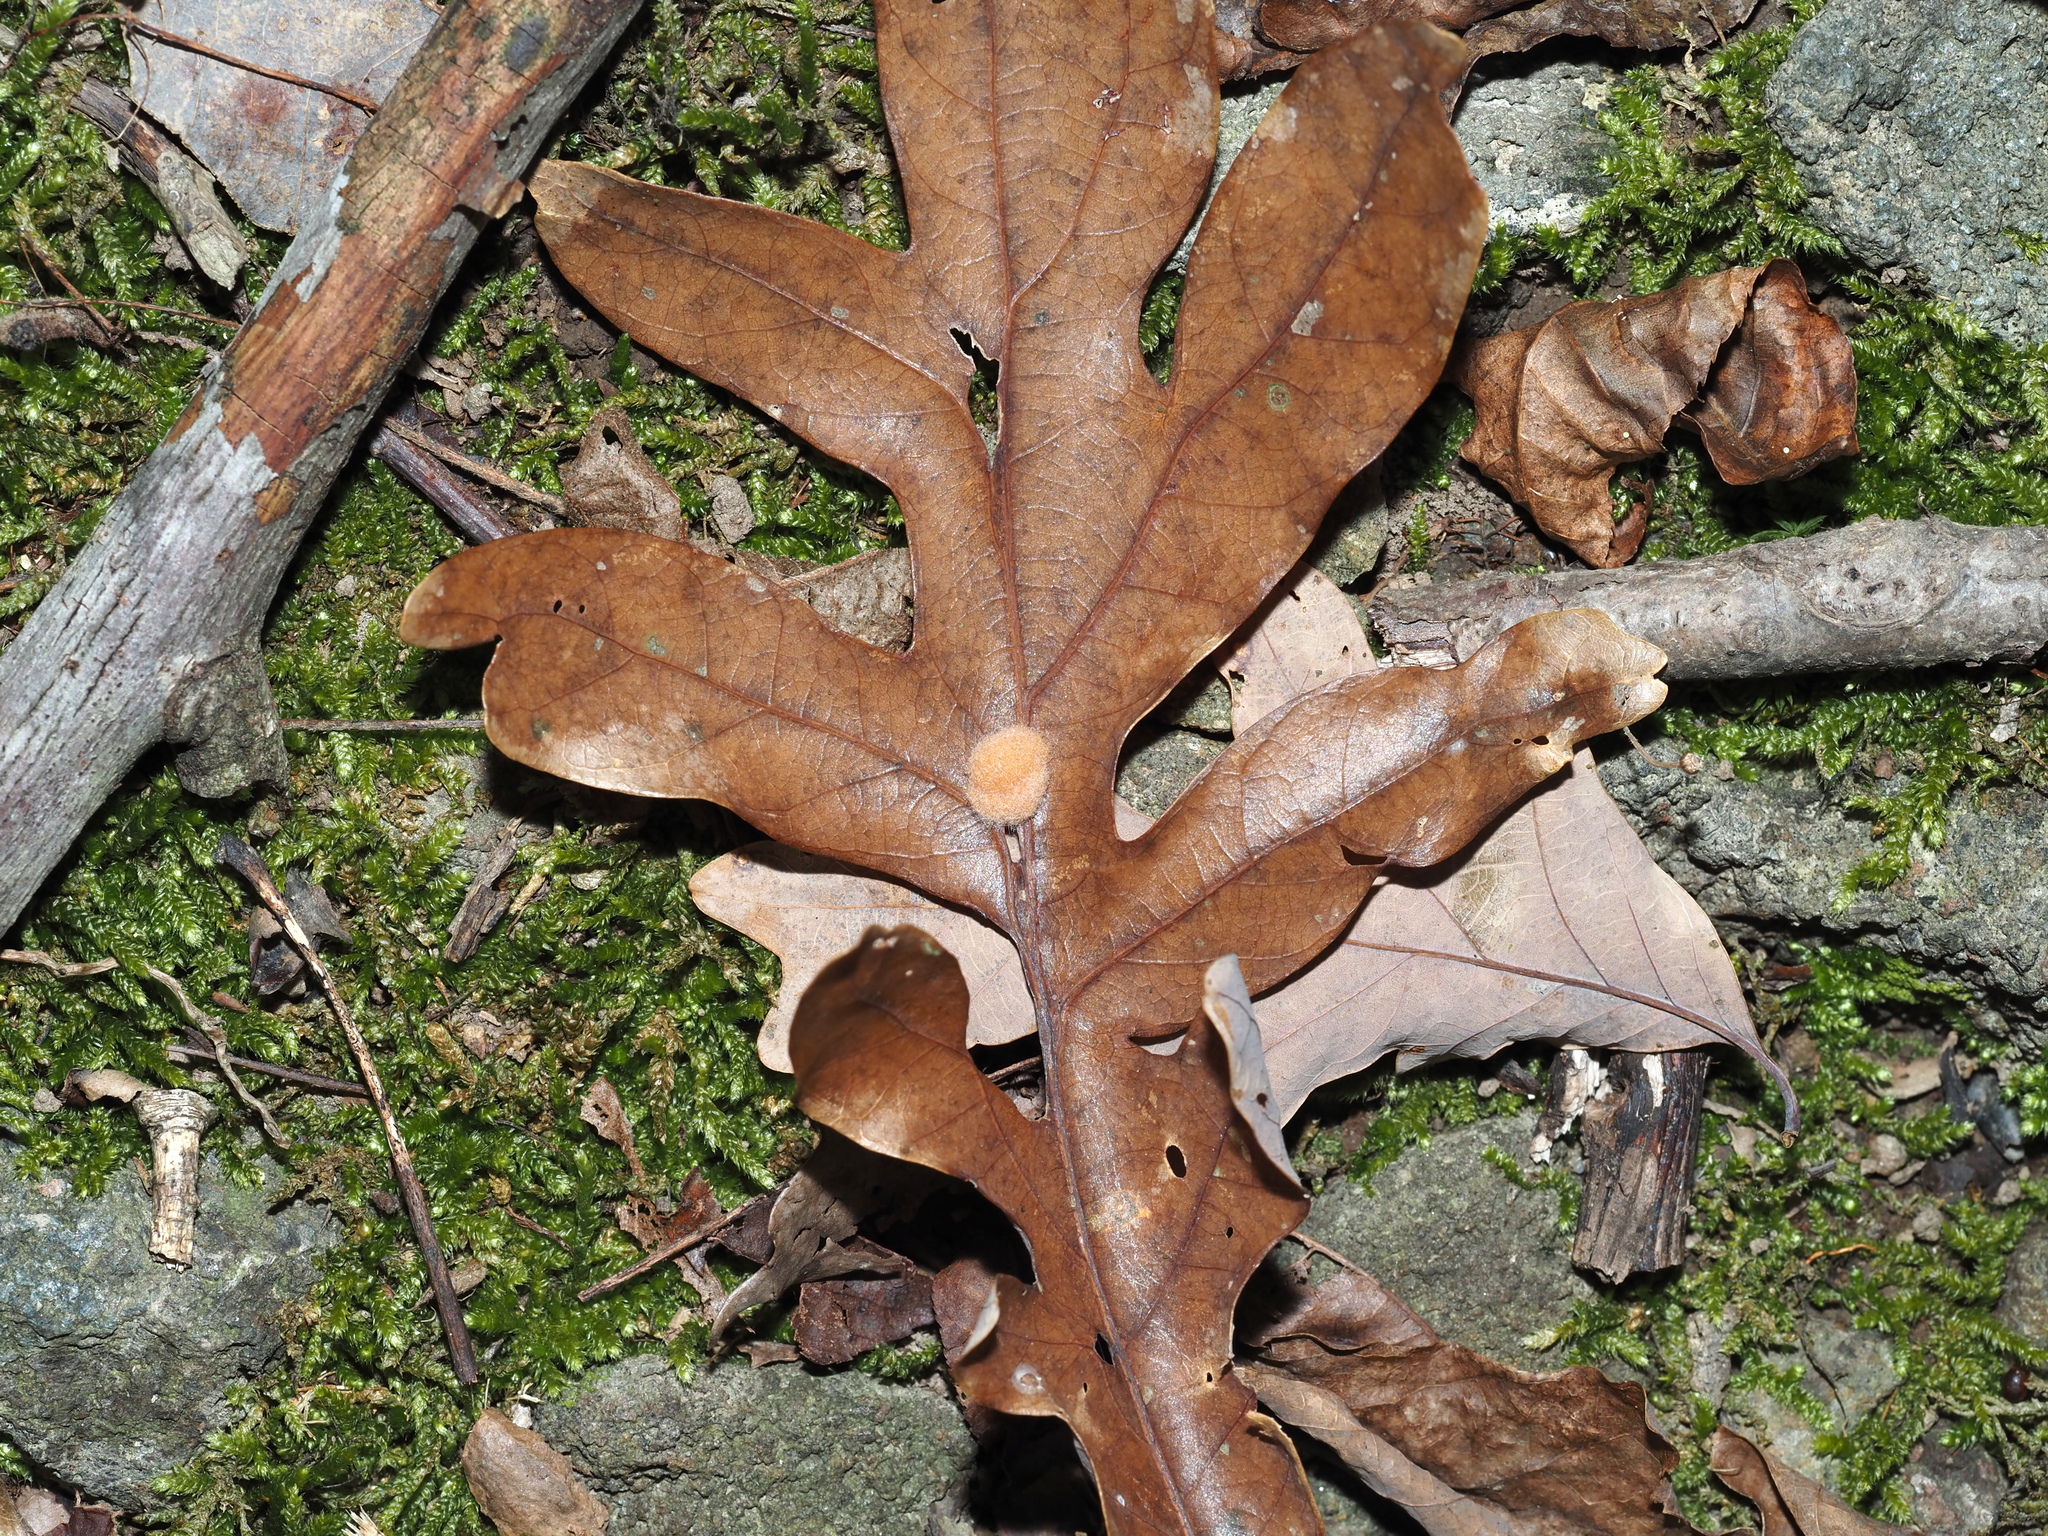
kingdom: Animalia
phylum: Arthropoda
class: Insecta
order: Hymenoptera
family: Cynipidae
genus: Andricus
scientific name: Andricus quercusflocci
